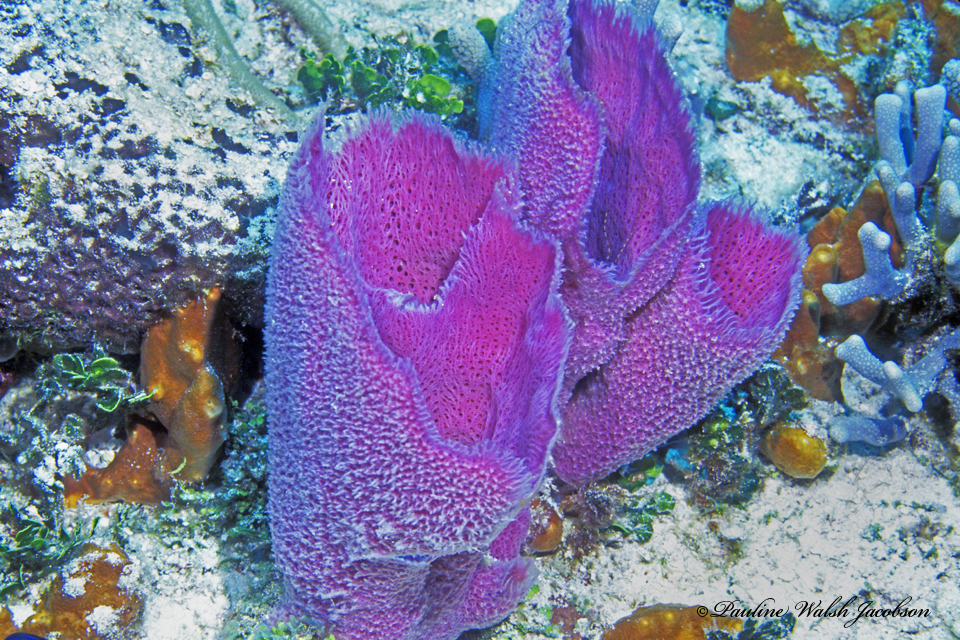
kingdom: Animalia
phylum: Porifera
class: Demospongiae
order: Haplosclerida
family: Niphatidae
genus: Niphates
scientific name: Niphates digitalis
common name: Pink vase sponge
